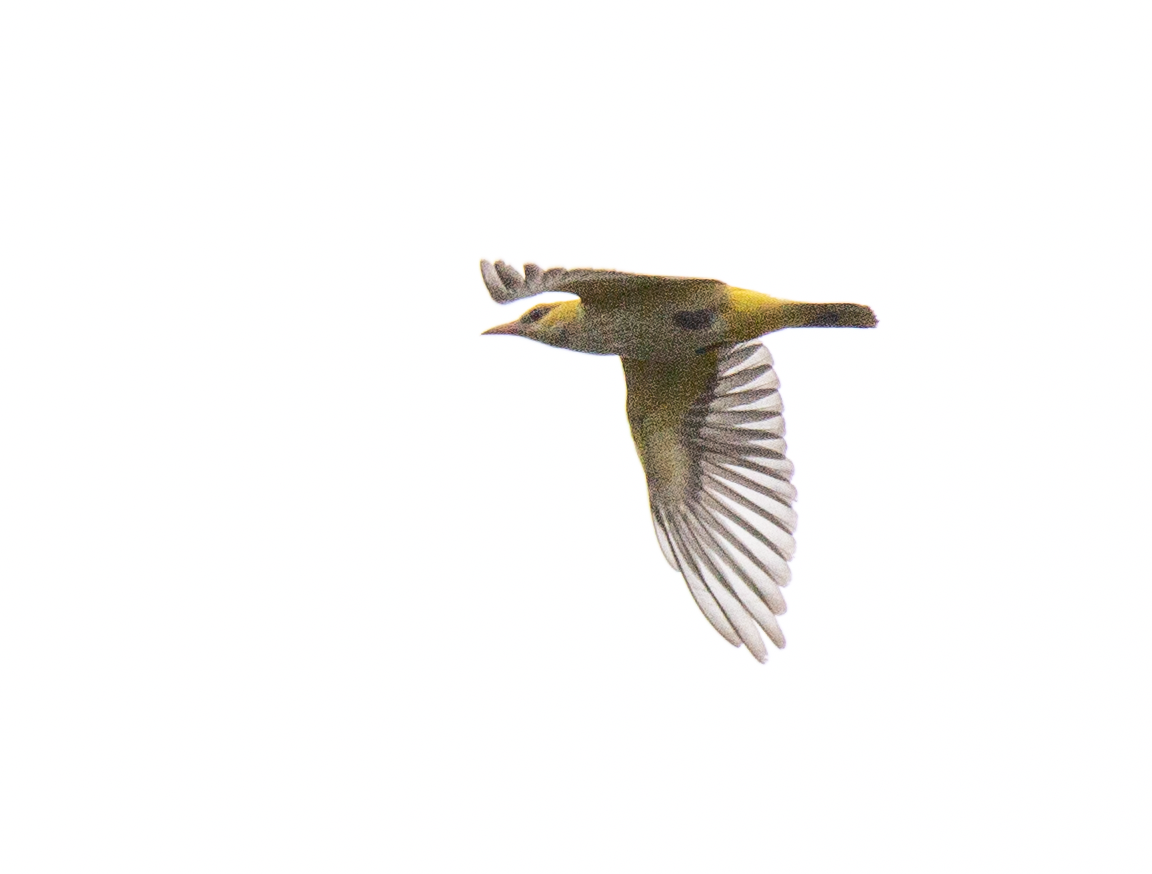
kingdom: Animalia
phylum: Chordata
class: Aves
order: Passeriformes
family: Oriolidae
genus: Oriolus
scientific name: Oriolus oriolus
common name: Eurasian golden oriole
